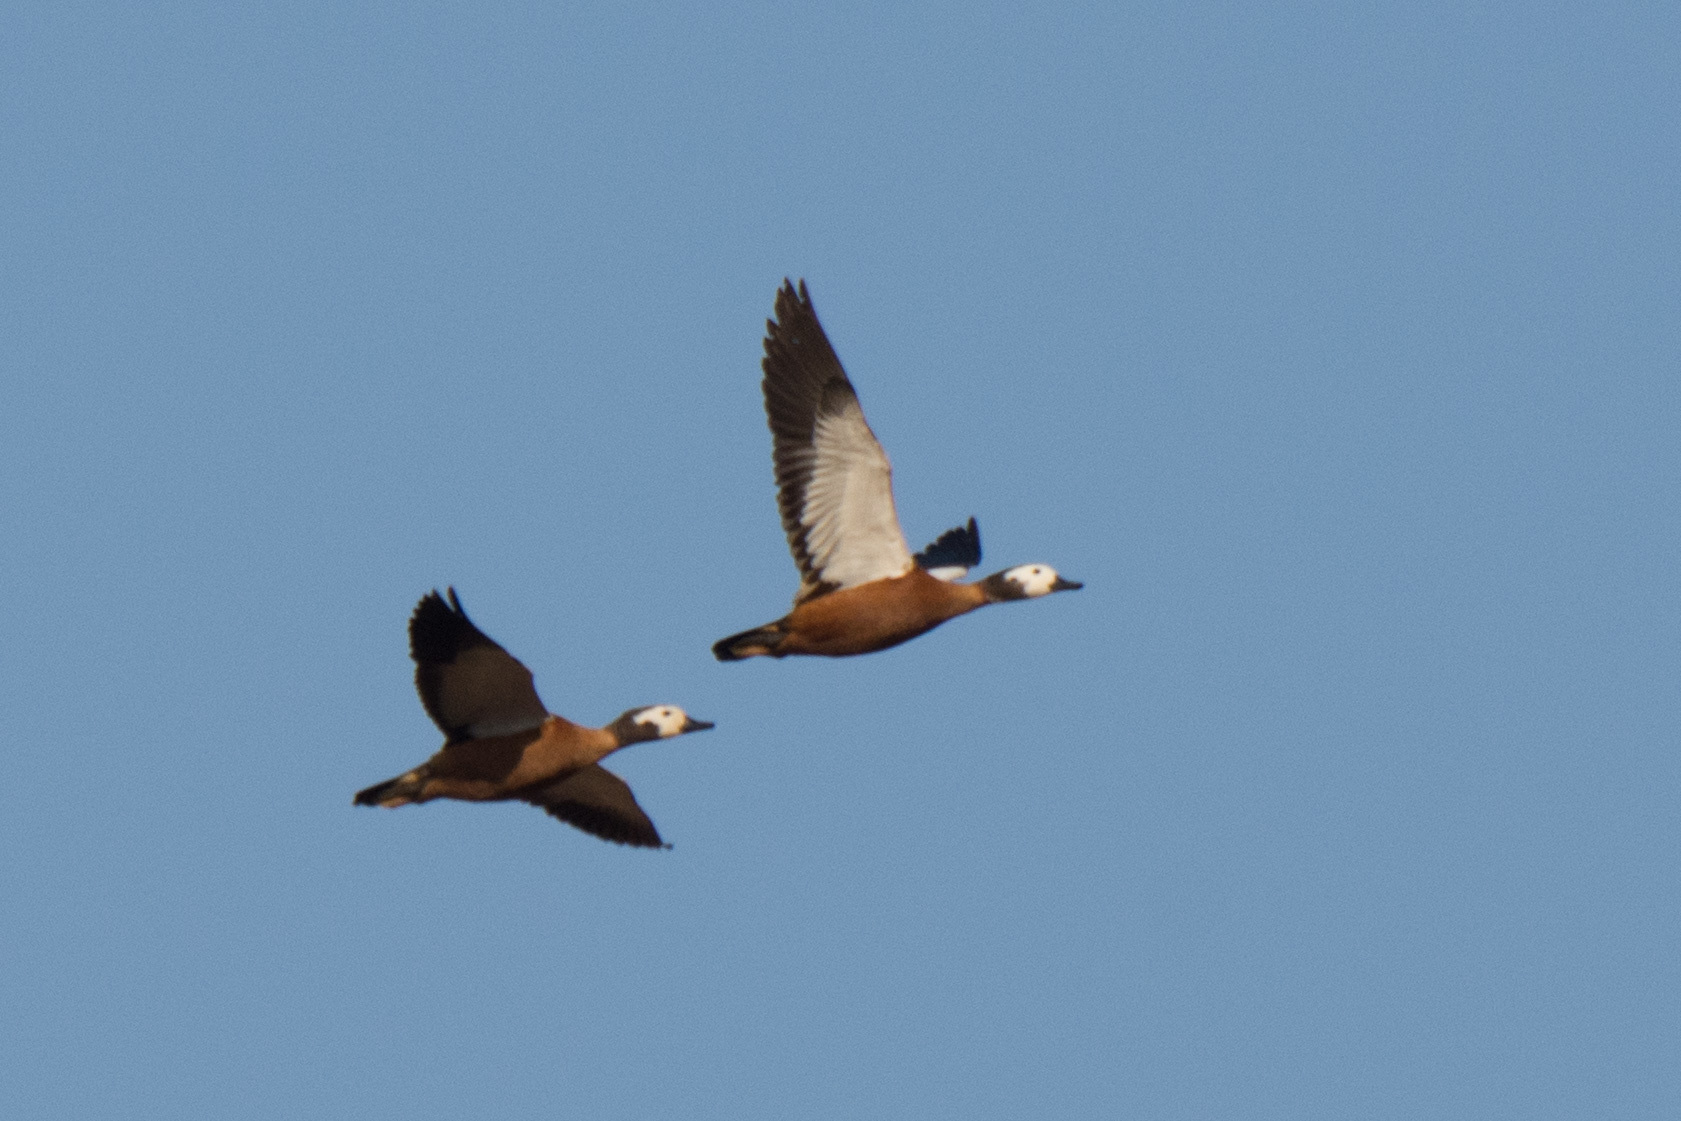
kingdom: Animalia
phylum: Chordata
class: Aves
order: Anseriformes
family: Anatidae
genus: Tadorna
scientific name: Tadorna cana
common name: South african shelduck
